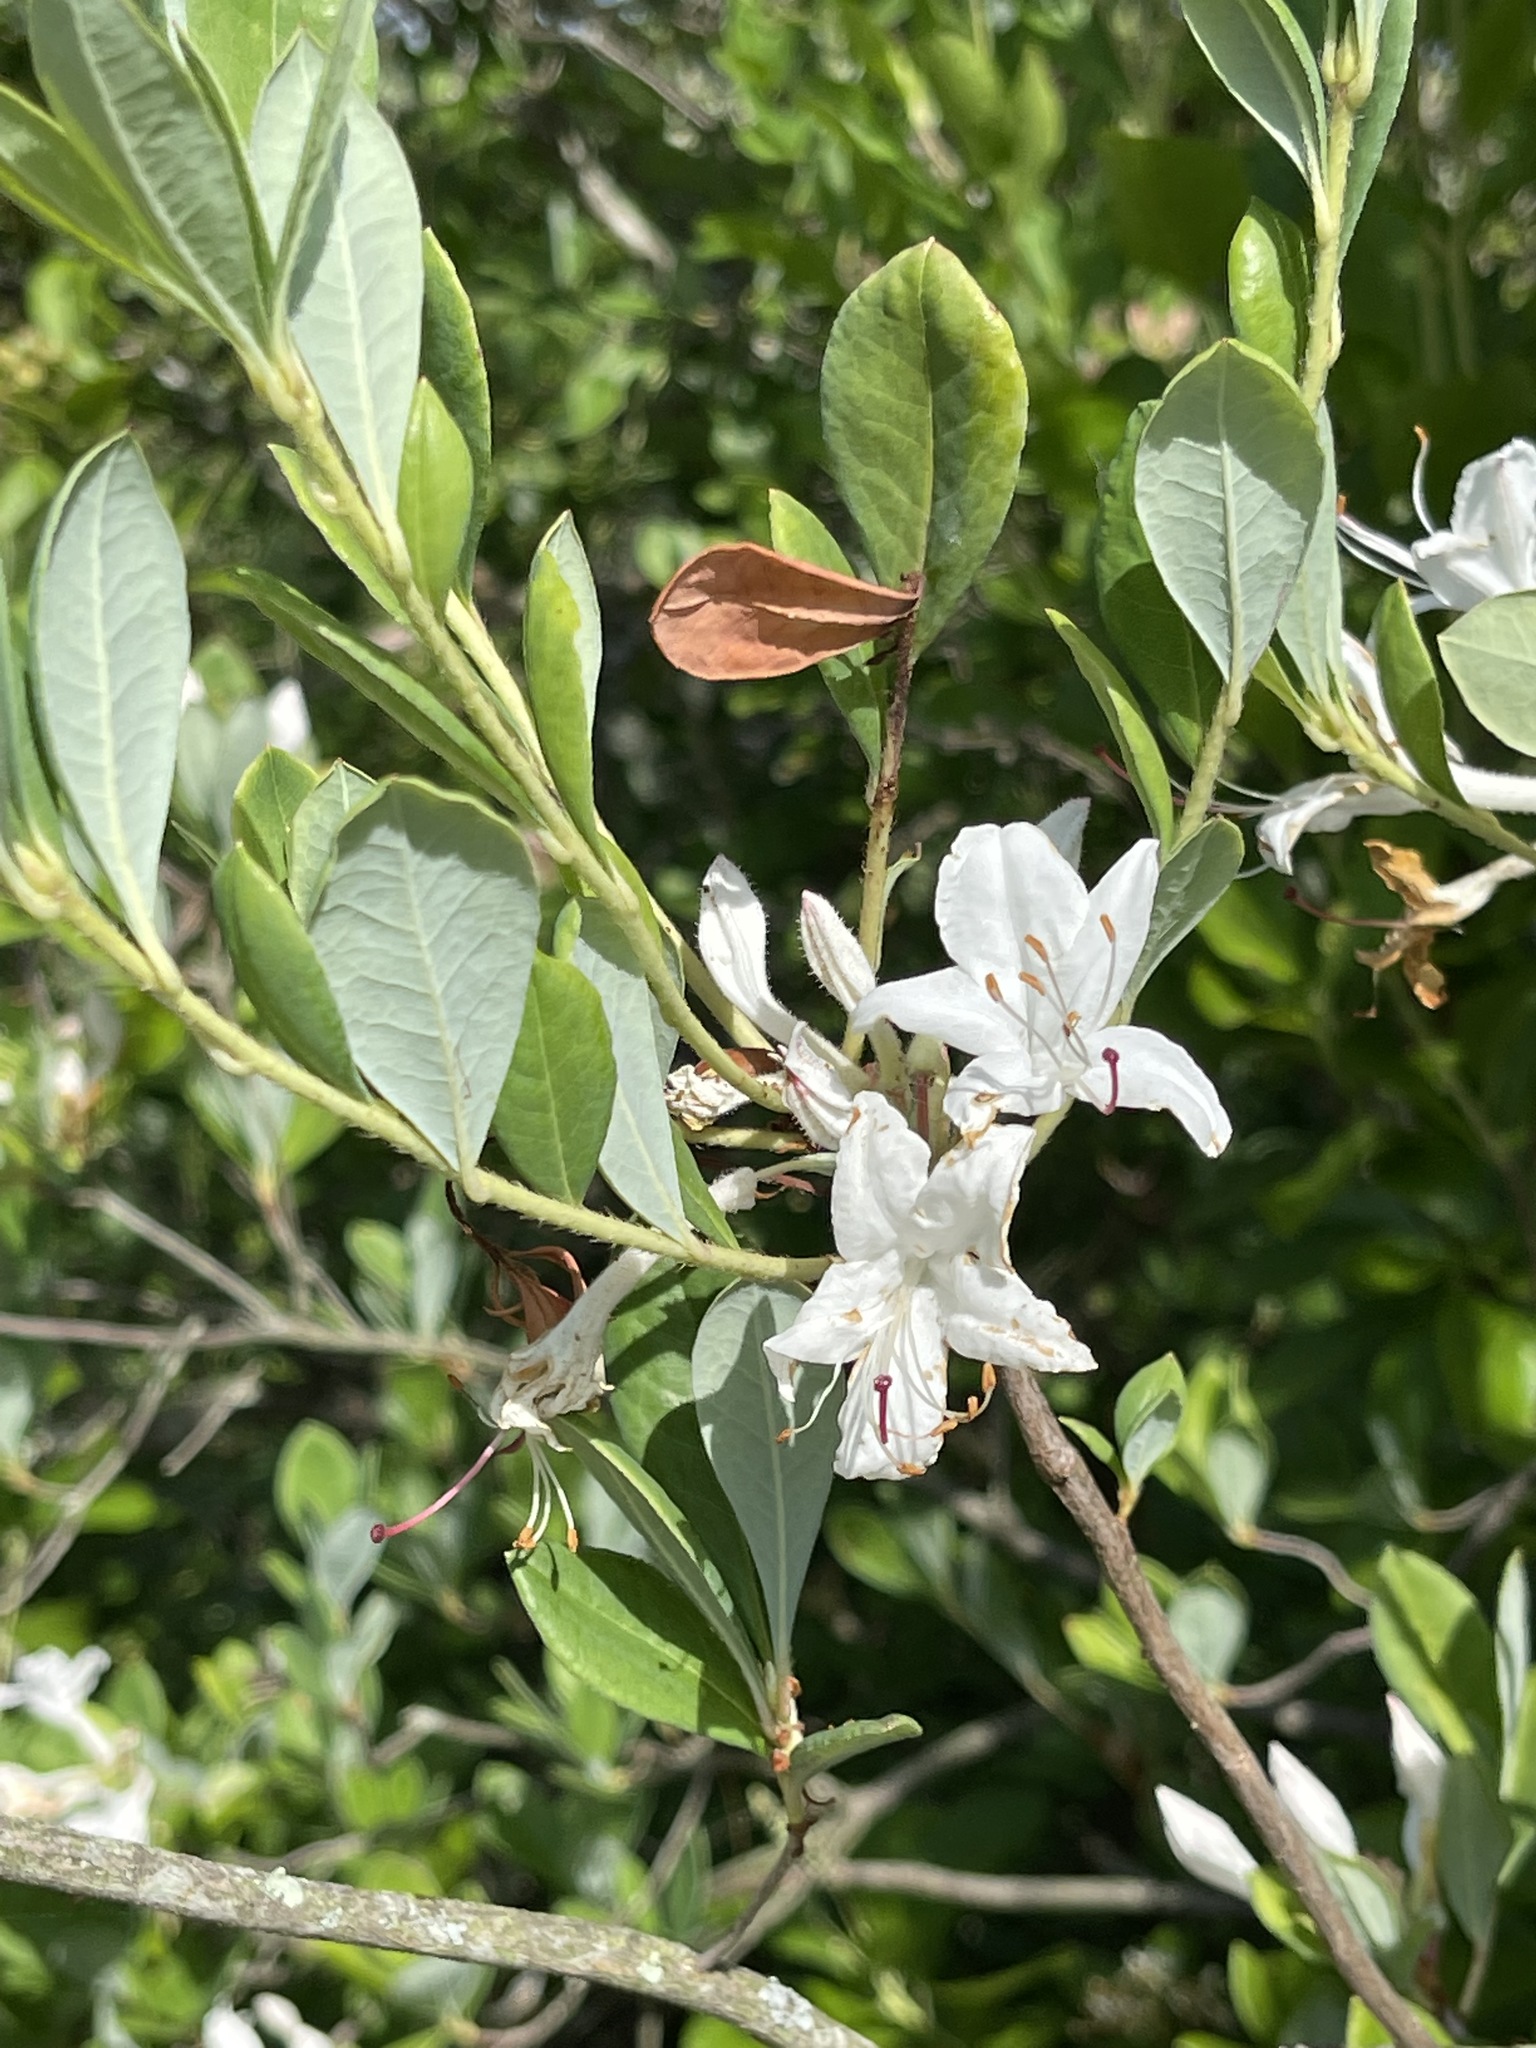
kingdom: Plantae
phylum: Tracheophyta
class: Magnoliopsida
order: Ericales
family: Ericaceae
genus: Rhododendron
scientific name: Rhododendron viscosum
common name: Clammy azalea
